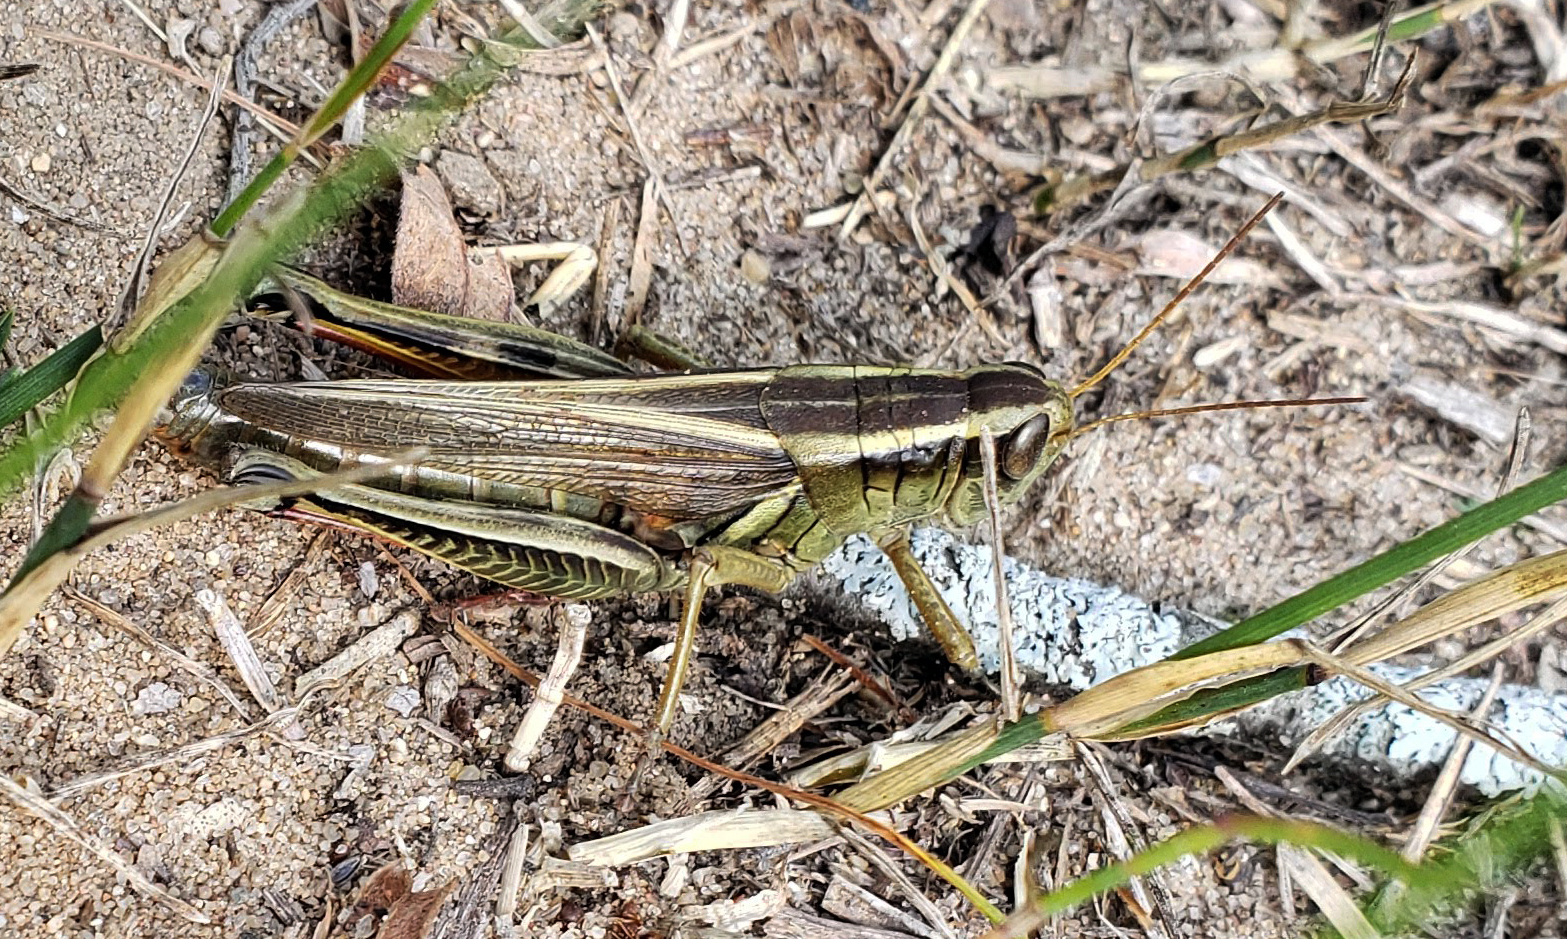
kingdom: Animalia
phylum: Arthropoda
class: Insecta
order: Orthoptera
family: Acrididae
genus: Melanoplus
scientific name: Melanoplus bivittatus
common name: Two-striped grasshopper
